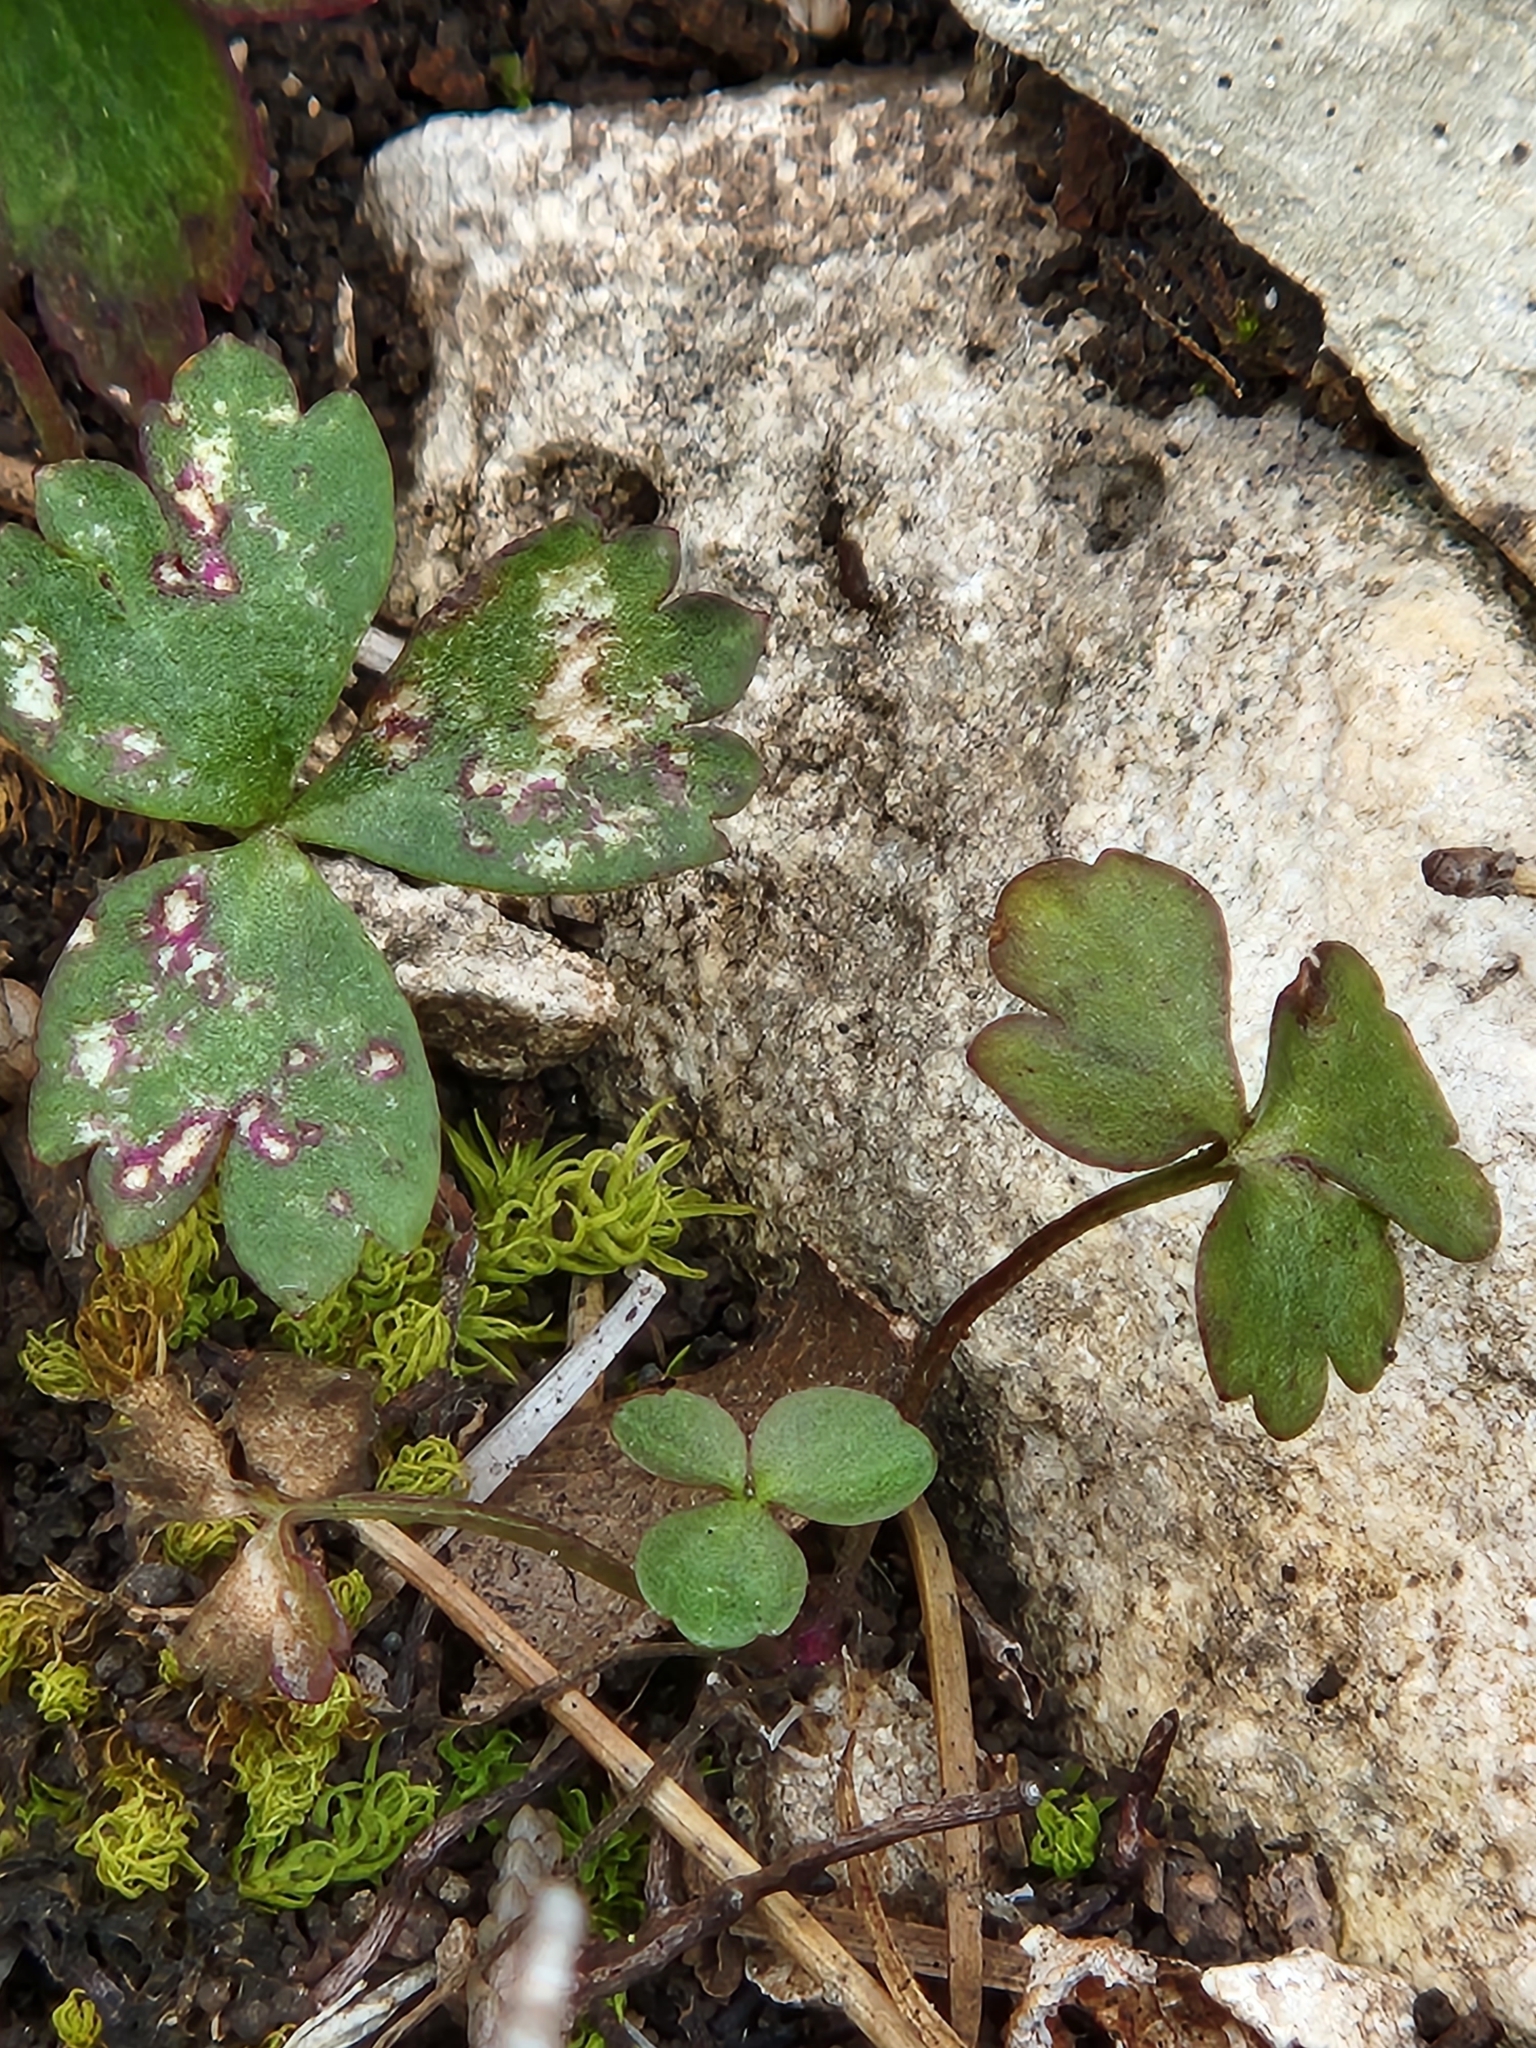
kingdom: Plantae
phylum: Tracheophyta
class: Magnoliopsida
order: Ranunculales
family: Ranunculaceae
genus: Anemone
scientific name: Anemone edwardsiana
